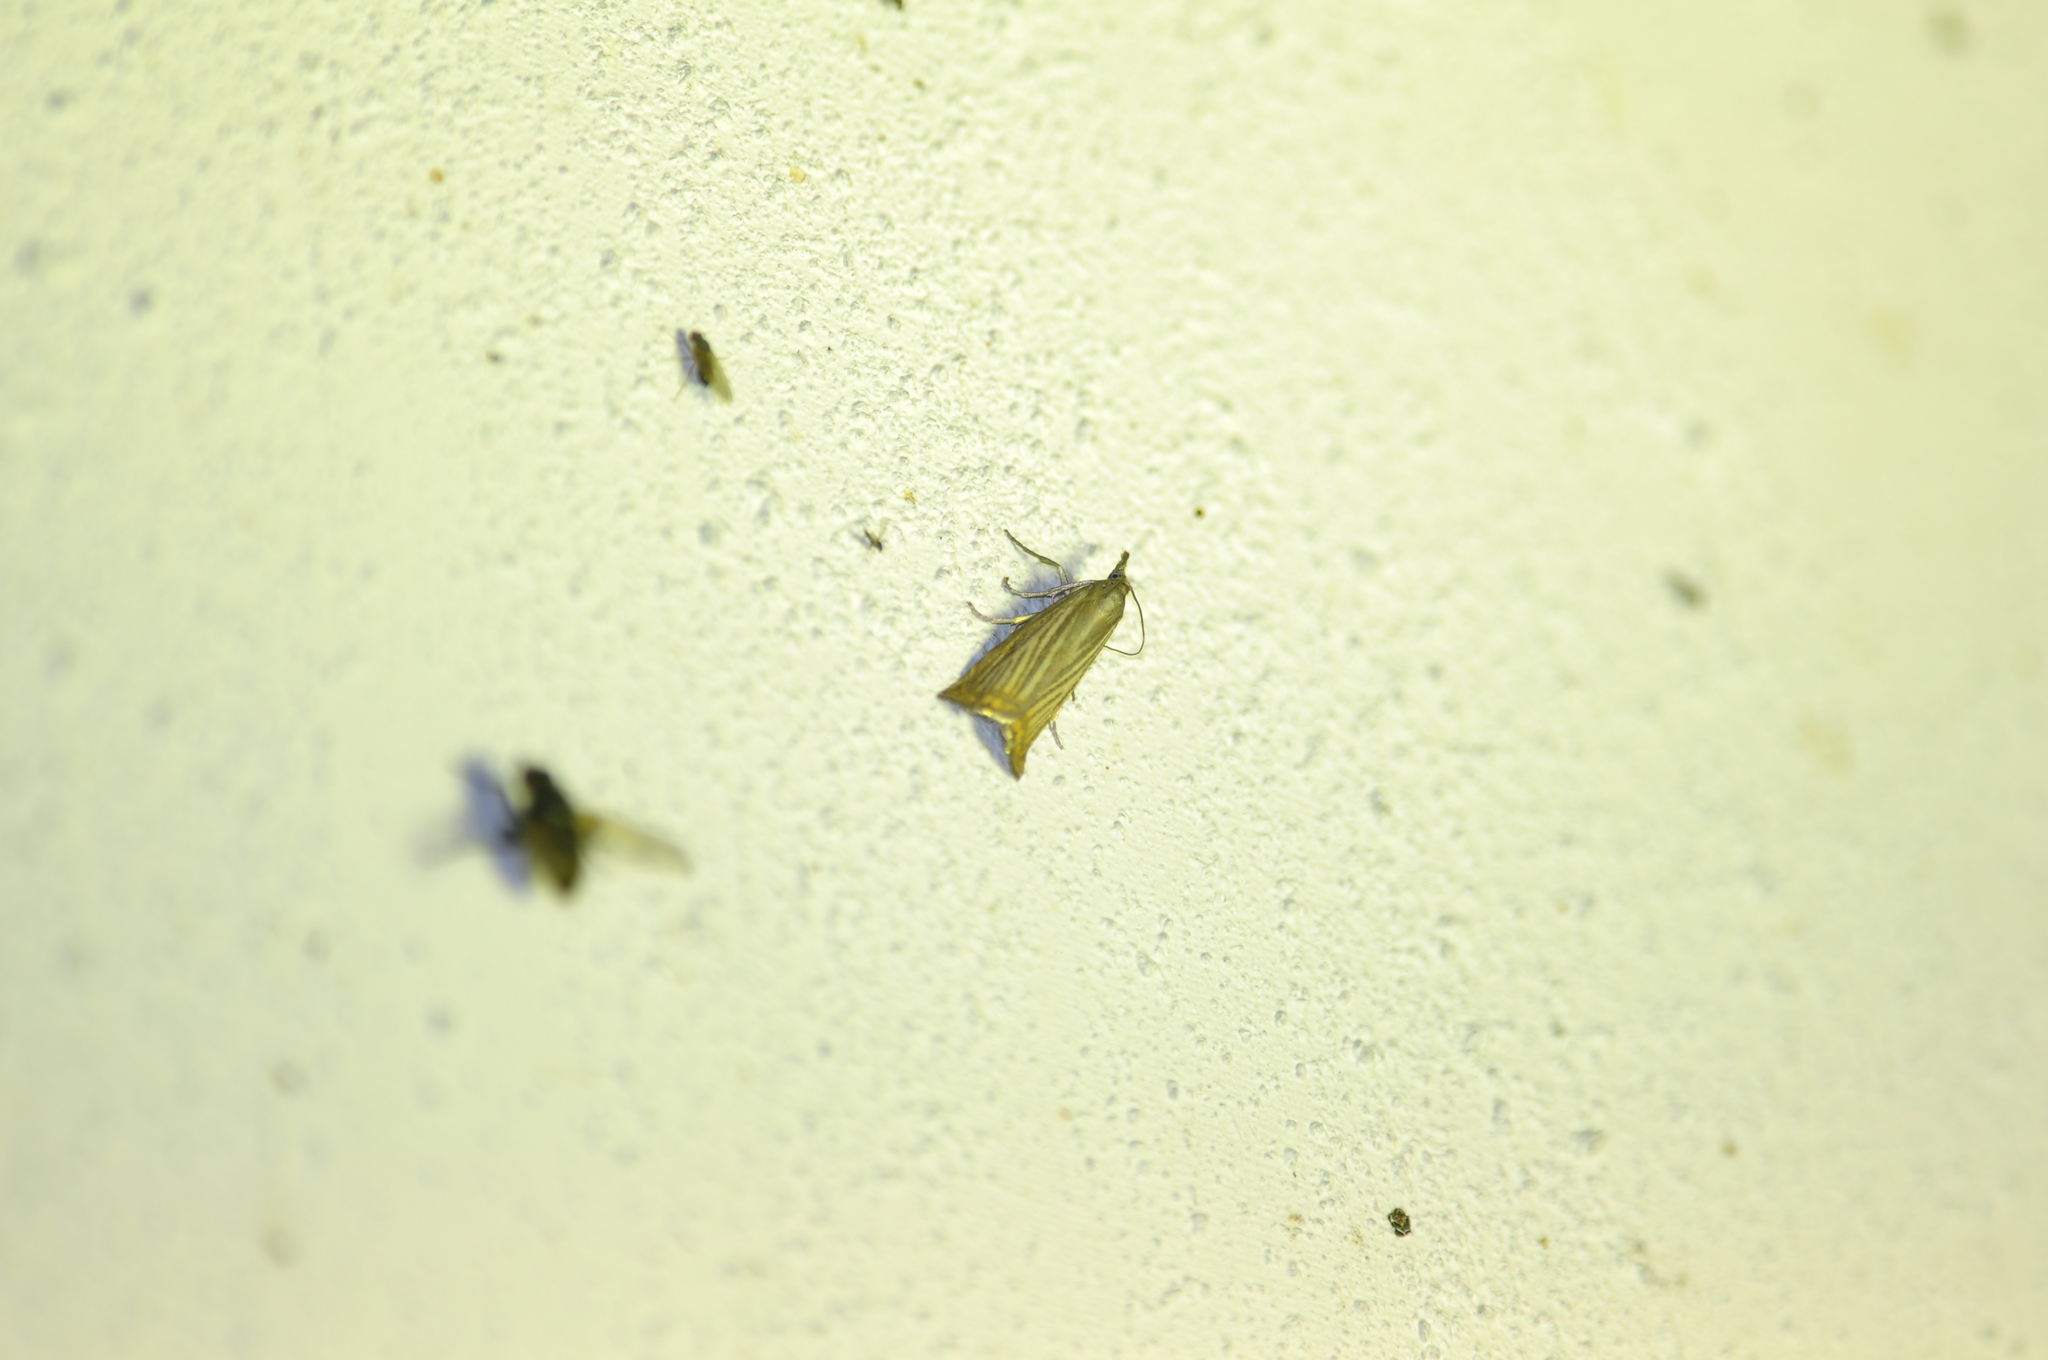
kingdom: Animalia
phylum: Arthropoda
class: Insecta
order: Lepidoptera
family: Crambidae
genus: Chrysoteuchia
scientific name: Chrysoteuchia culmella
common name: Garden grass-veneer
